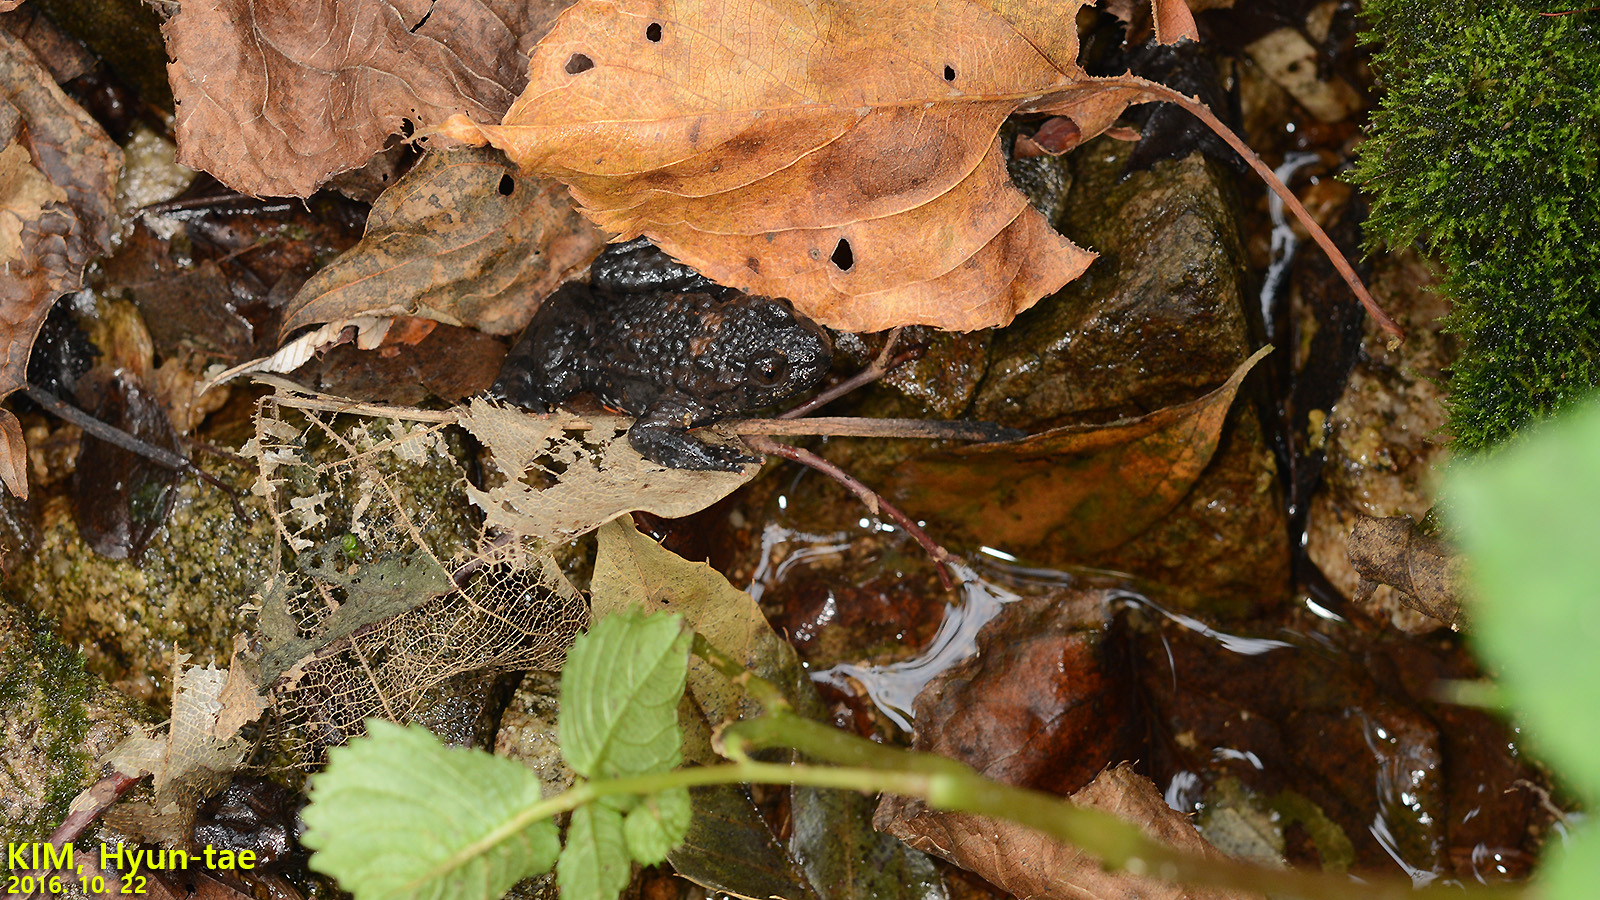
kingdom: Animalia
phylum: Chordata
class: Amphibia
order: Anura
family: Bombinatoridae
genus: Bombina
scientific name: Bombina orientalis
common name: Oriental firebelly toad
